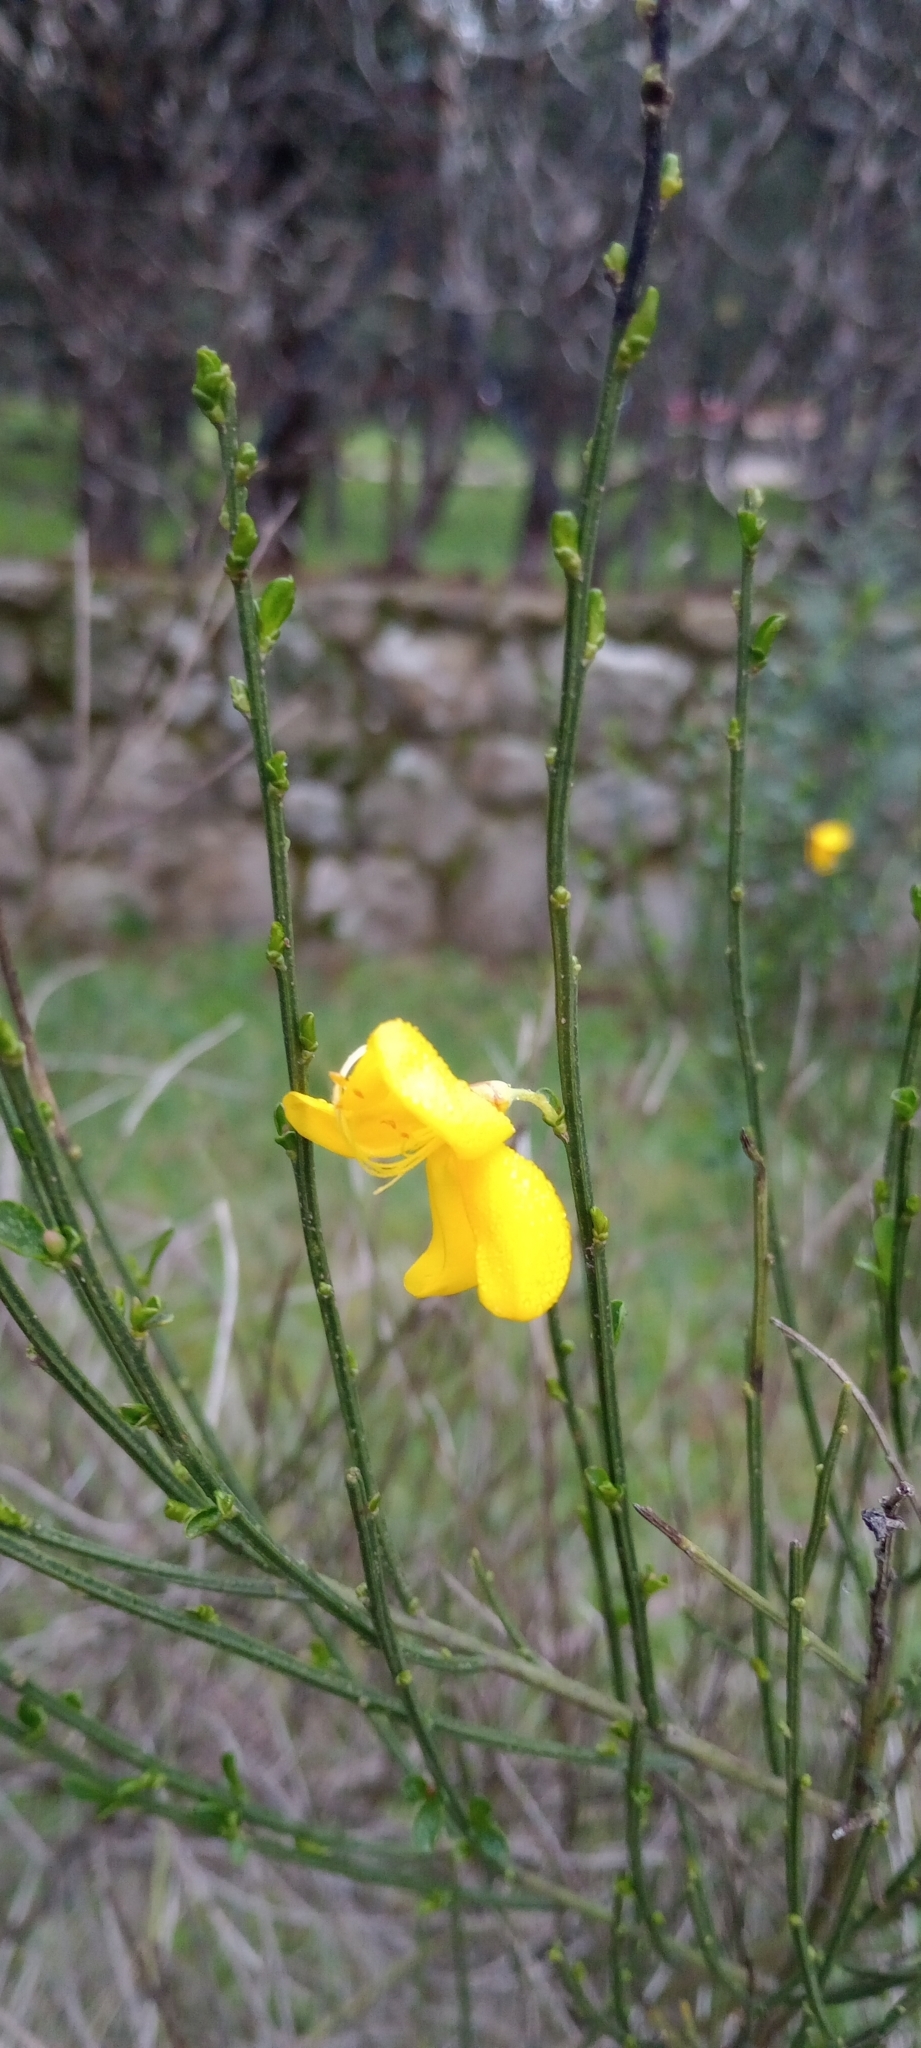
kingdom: Plantae
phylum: Tracheophyta
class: Magnoliopsida
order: Fabales
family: Fabaceae
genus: Cytisus
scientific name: Cytisus scoparius
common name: Scotch broom
